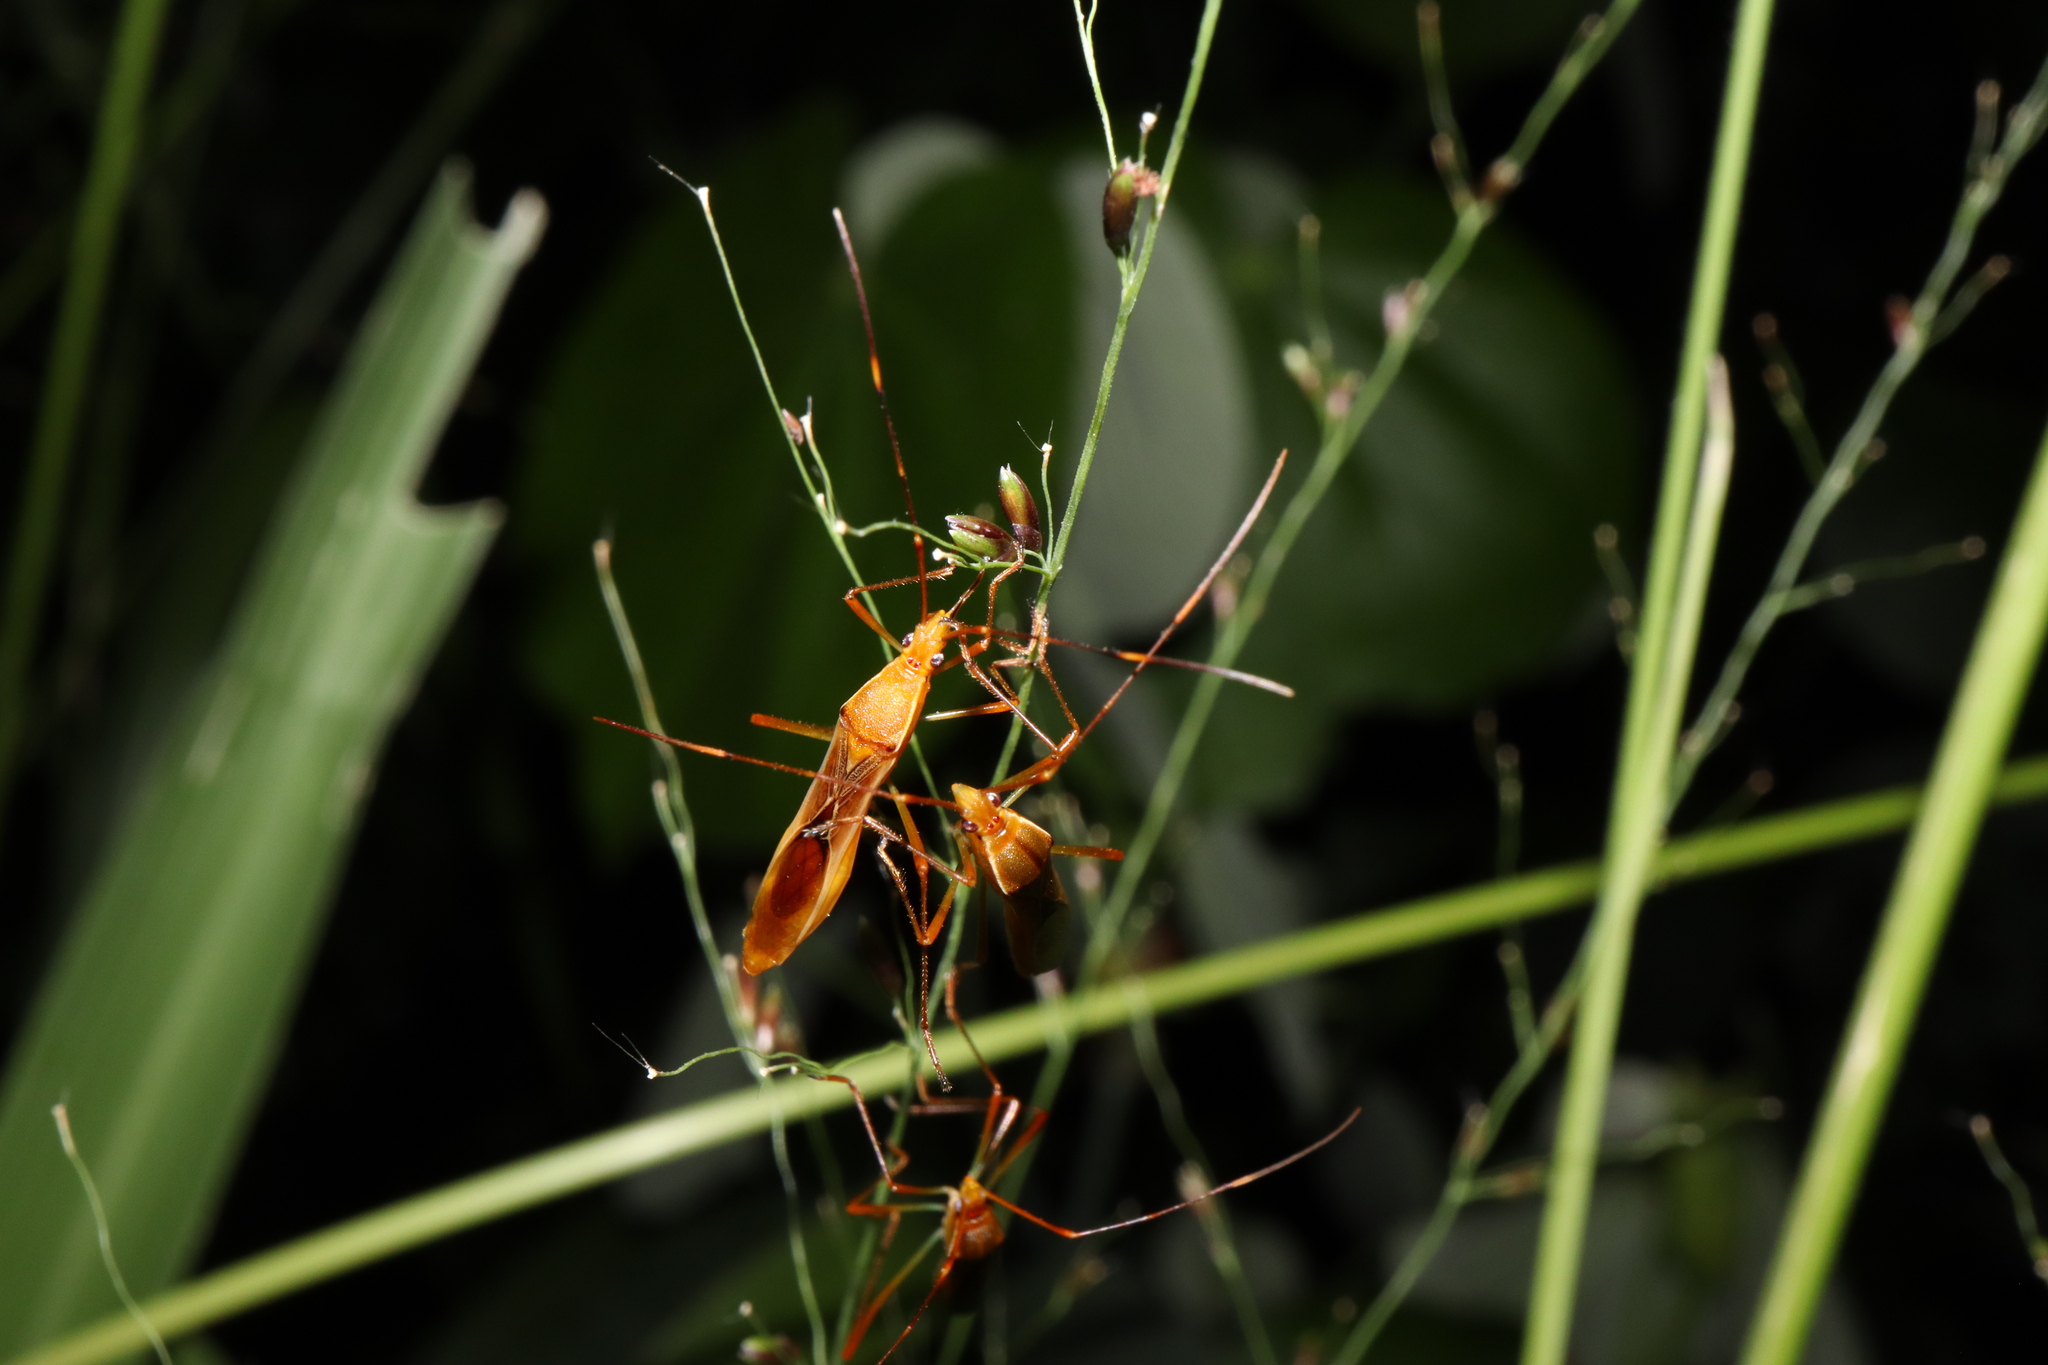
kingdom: Animalia
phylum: Arthropoda
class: Insecta
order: Hemiptera
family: Alydidae
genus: Leptocorisa
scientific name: Leptocorisa acuta
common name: Gandhi bug
